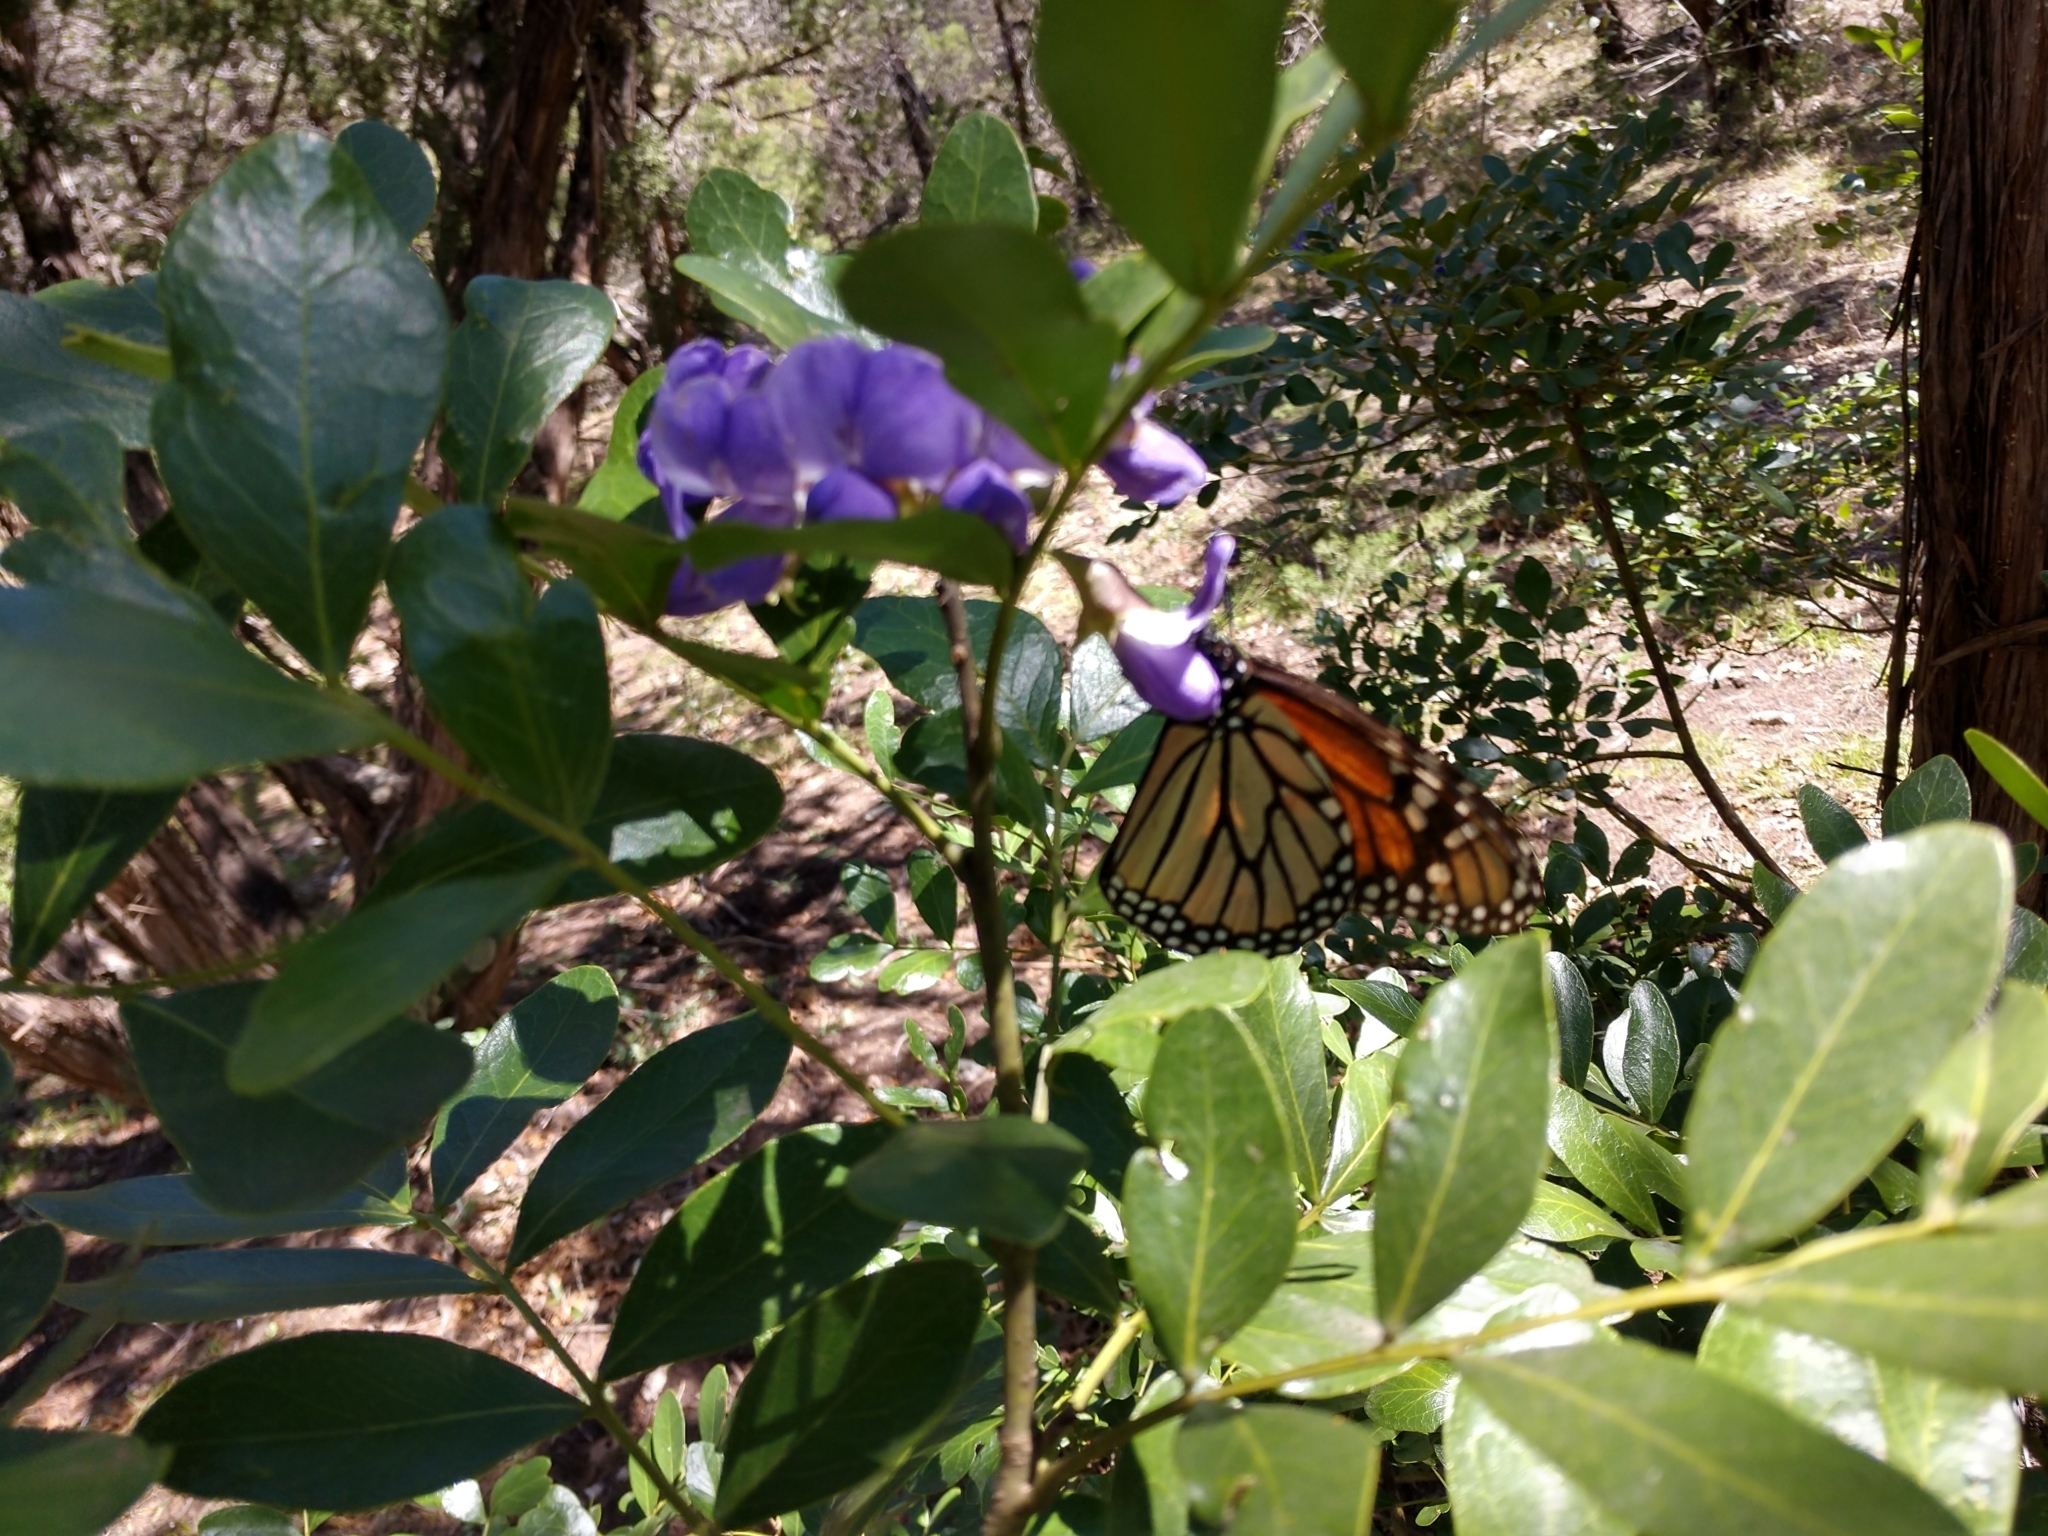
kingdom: Animalia
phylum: Arthropoda
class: Insecta
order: Lepidoptera
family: Nymphalidae
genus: Danaus
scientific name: Danaus plexippus
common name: Monarch
